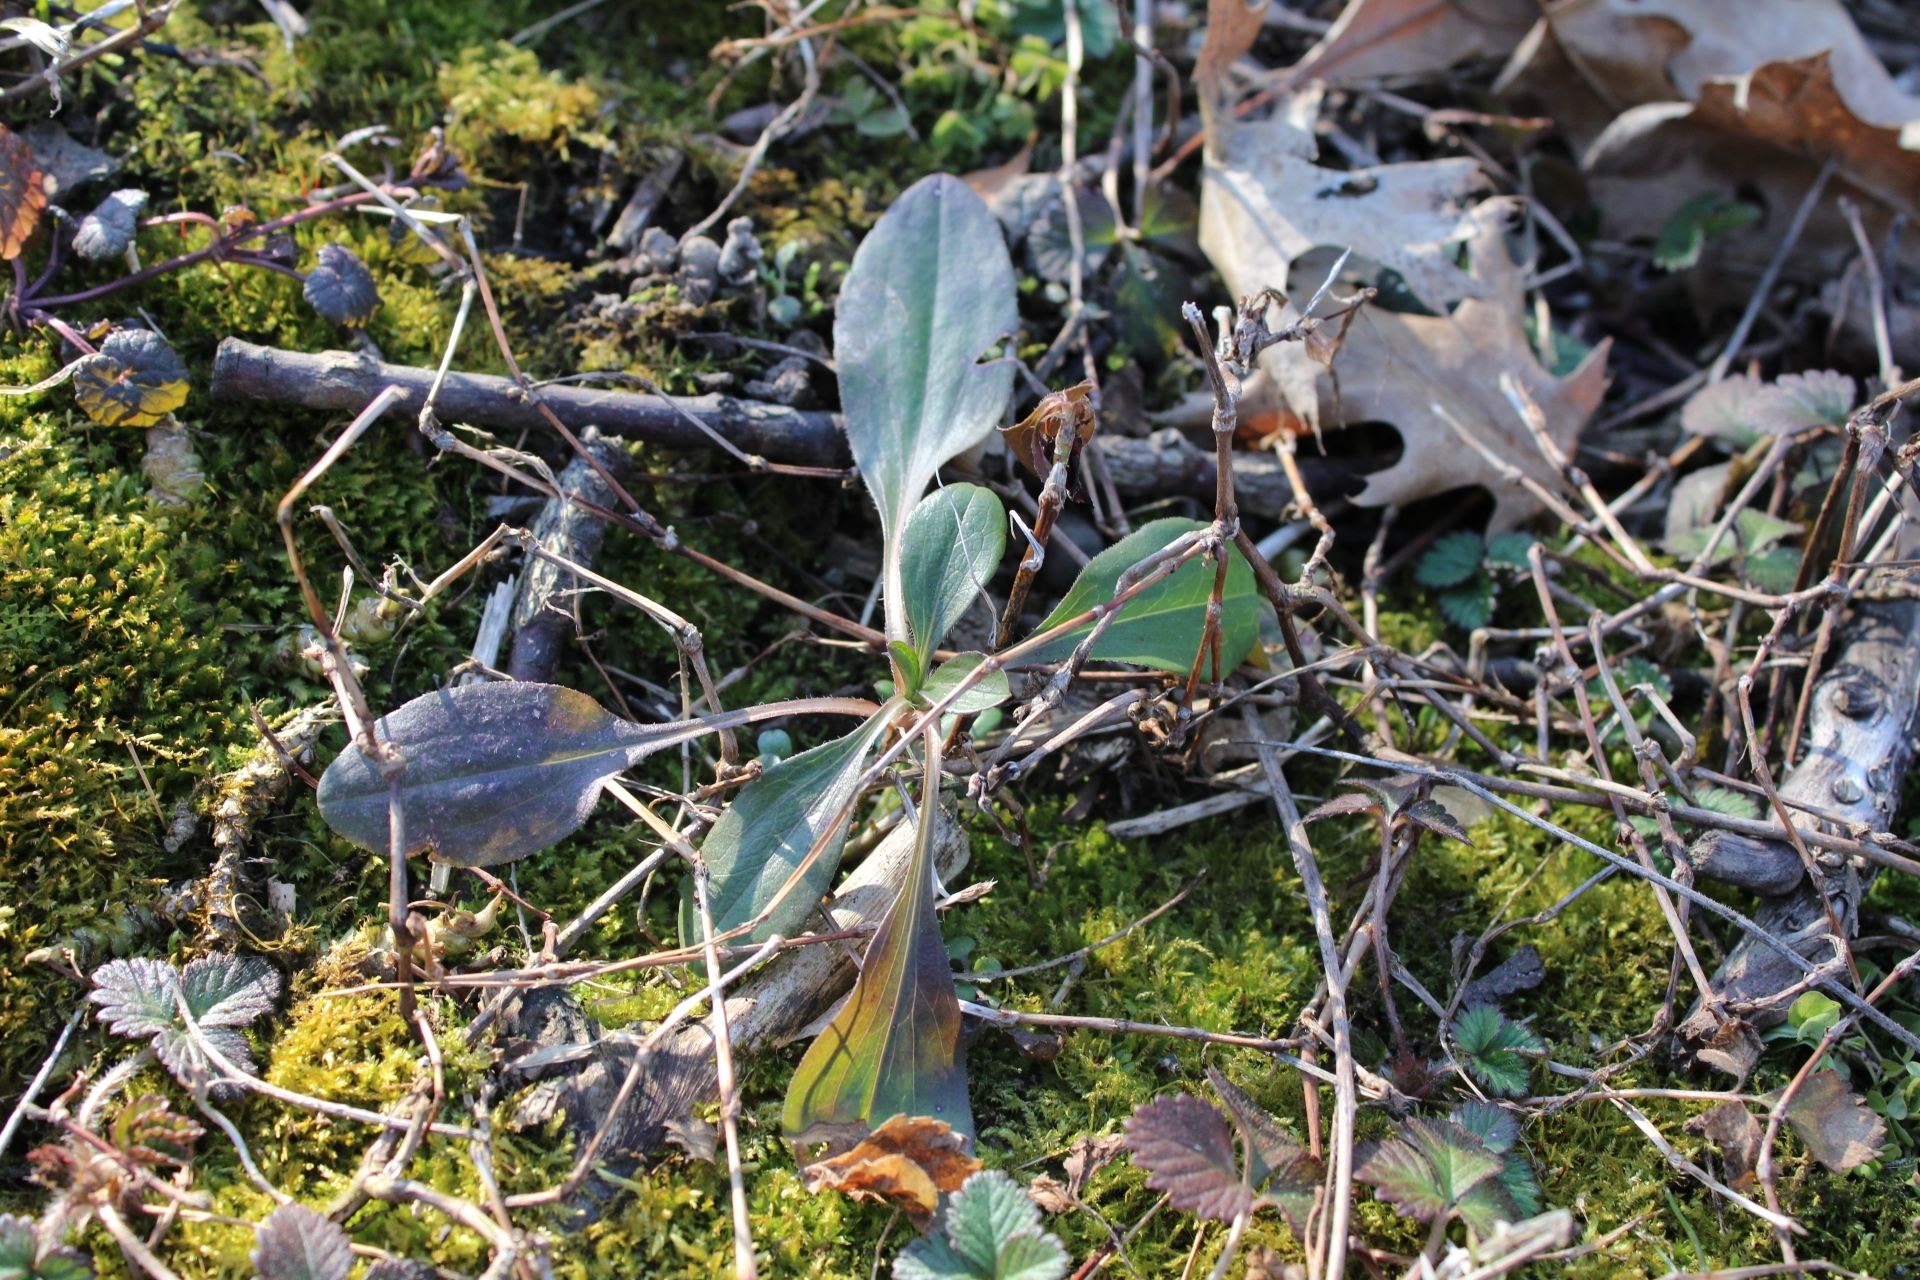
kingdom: Plantae
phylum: Tracheophyta
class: Magnoliopsida
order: Asterales
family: Asteraceae
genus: Antennaria
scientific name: Antennaria plantaginifolia
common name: Plantain-leaved pussytoes
